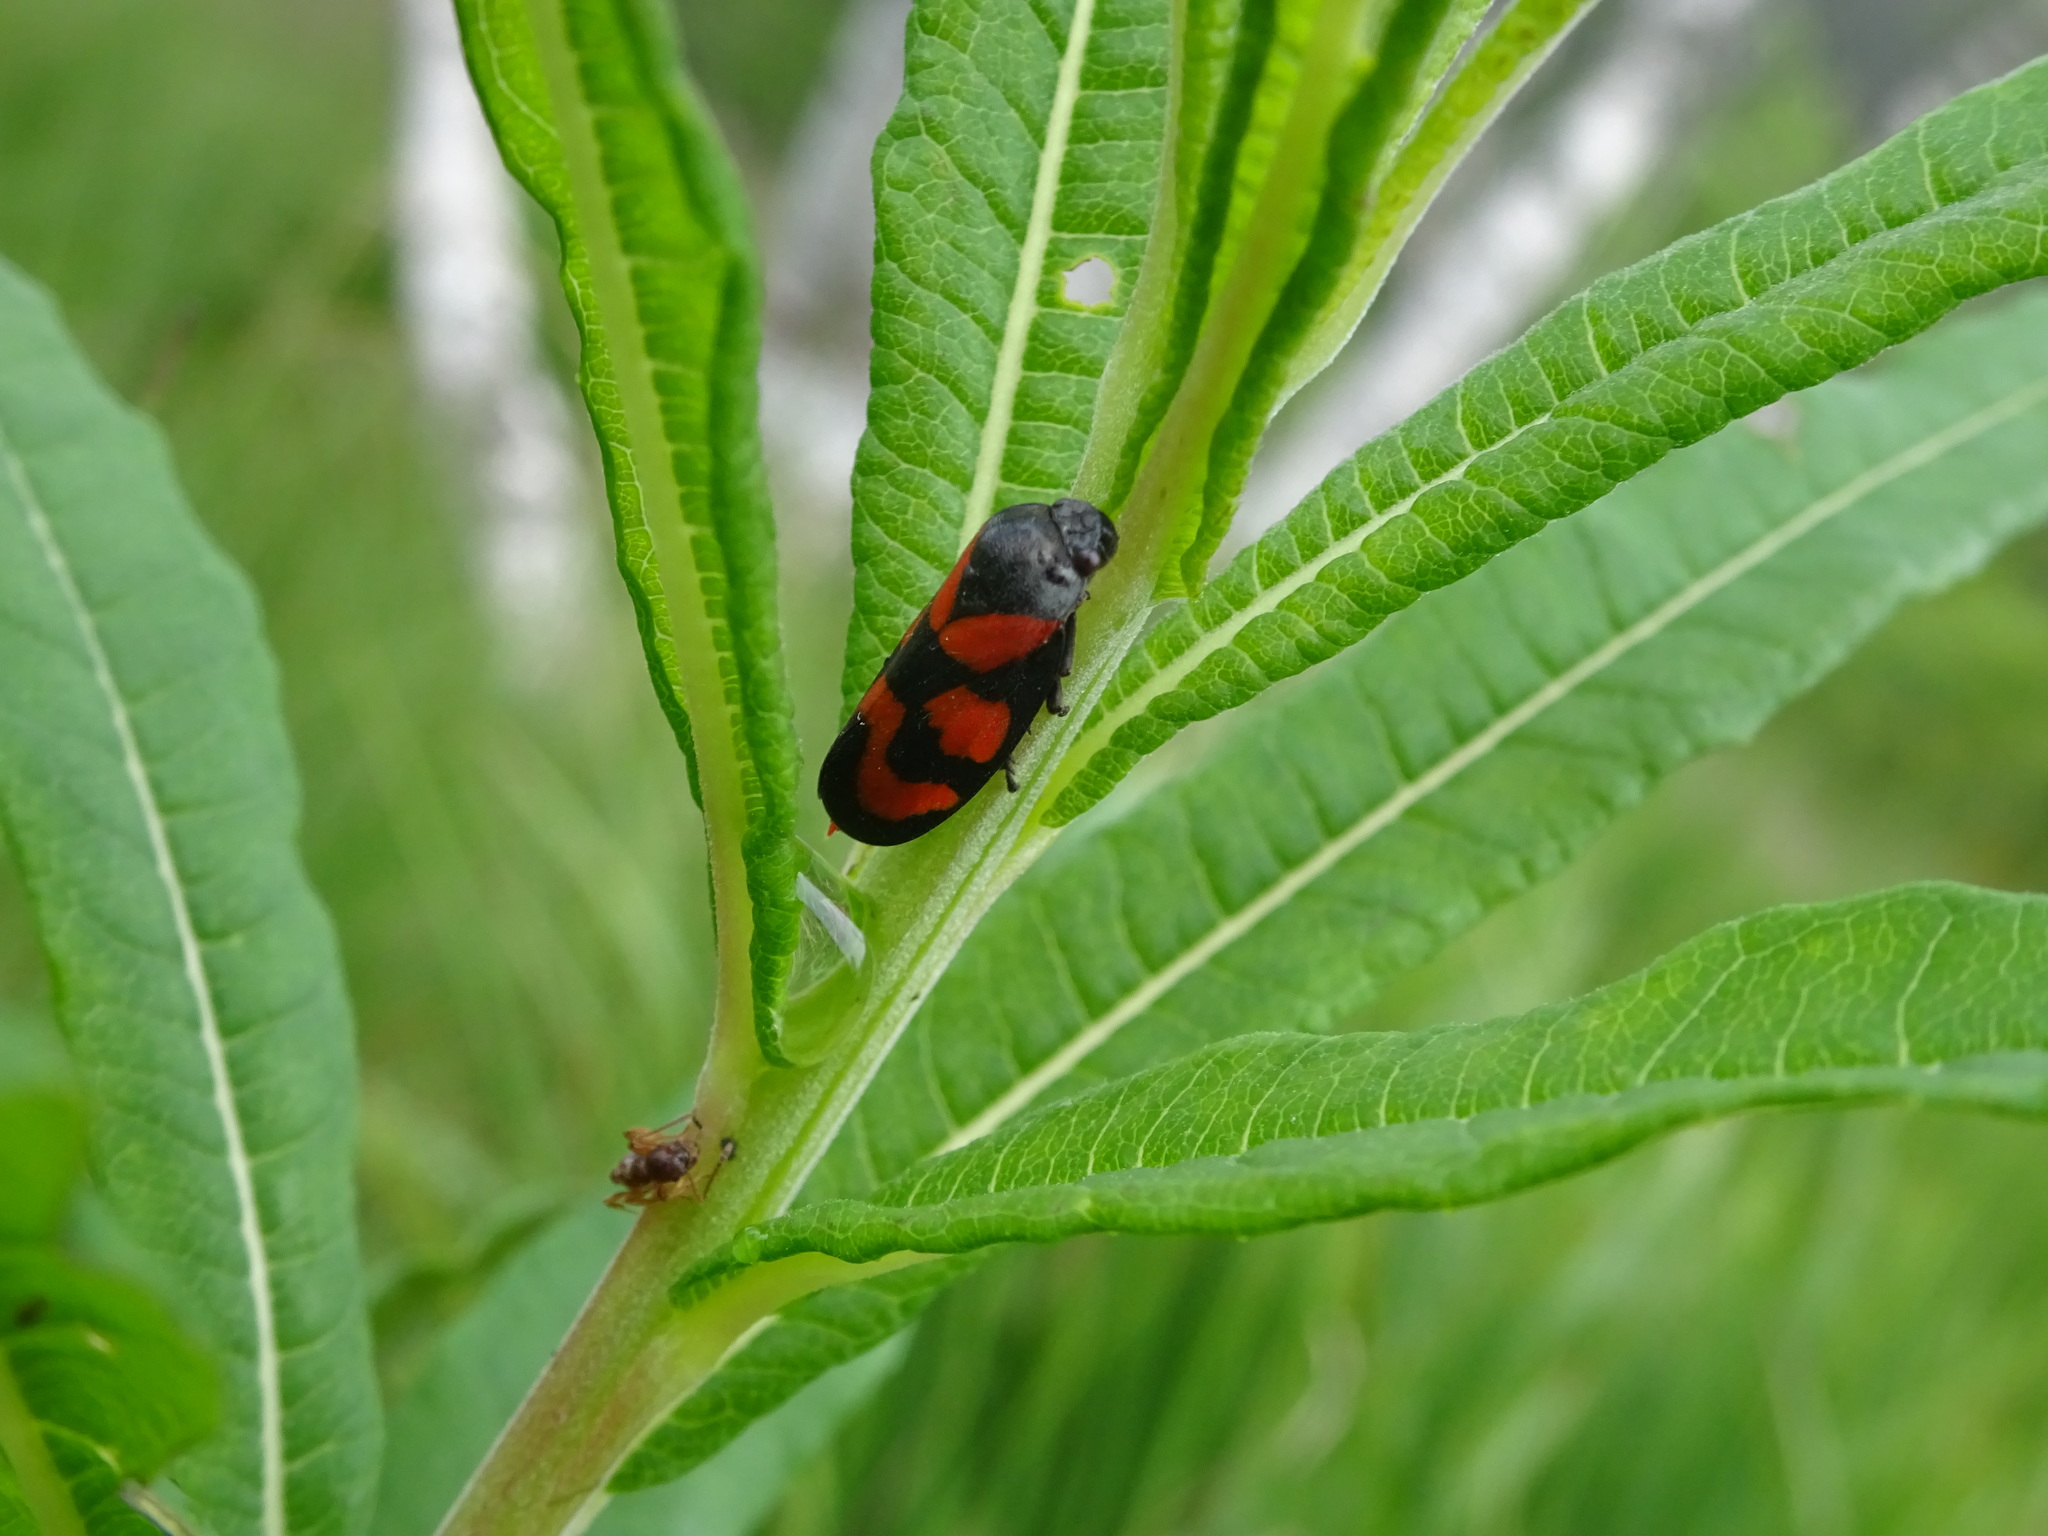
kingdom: Animalia
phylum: Arthropoda
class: Insecta
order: Hemiptera
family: Cercopidae
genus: Cercopis
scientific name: Cercopis vulnerata
